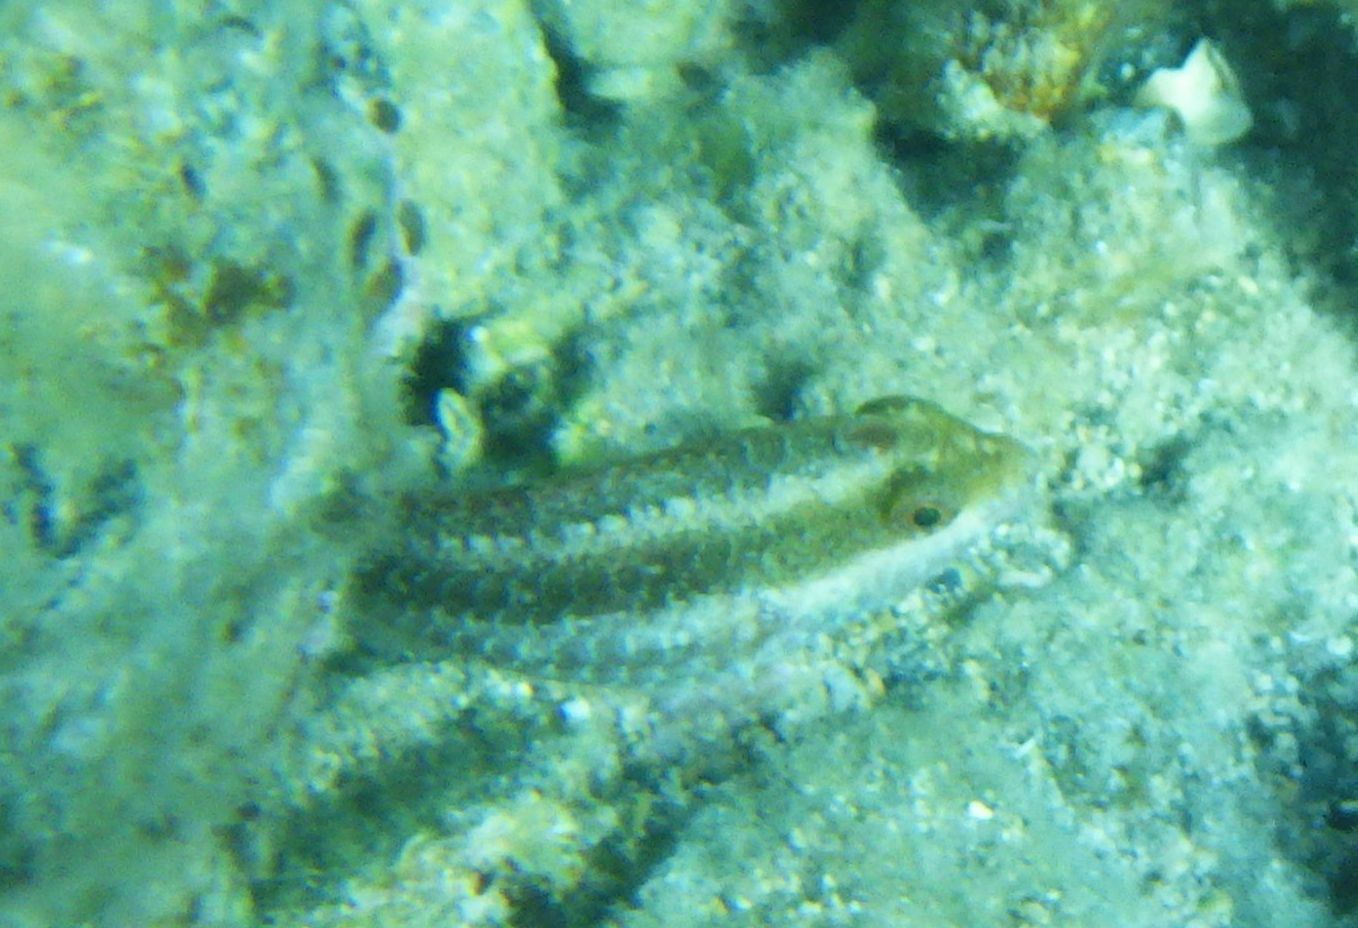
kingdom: Animalia
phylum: Chordata
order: Perciformes
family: Scaridae
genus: Sparisoma
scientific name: Sparisoma cretense
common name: Parrotfish
